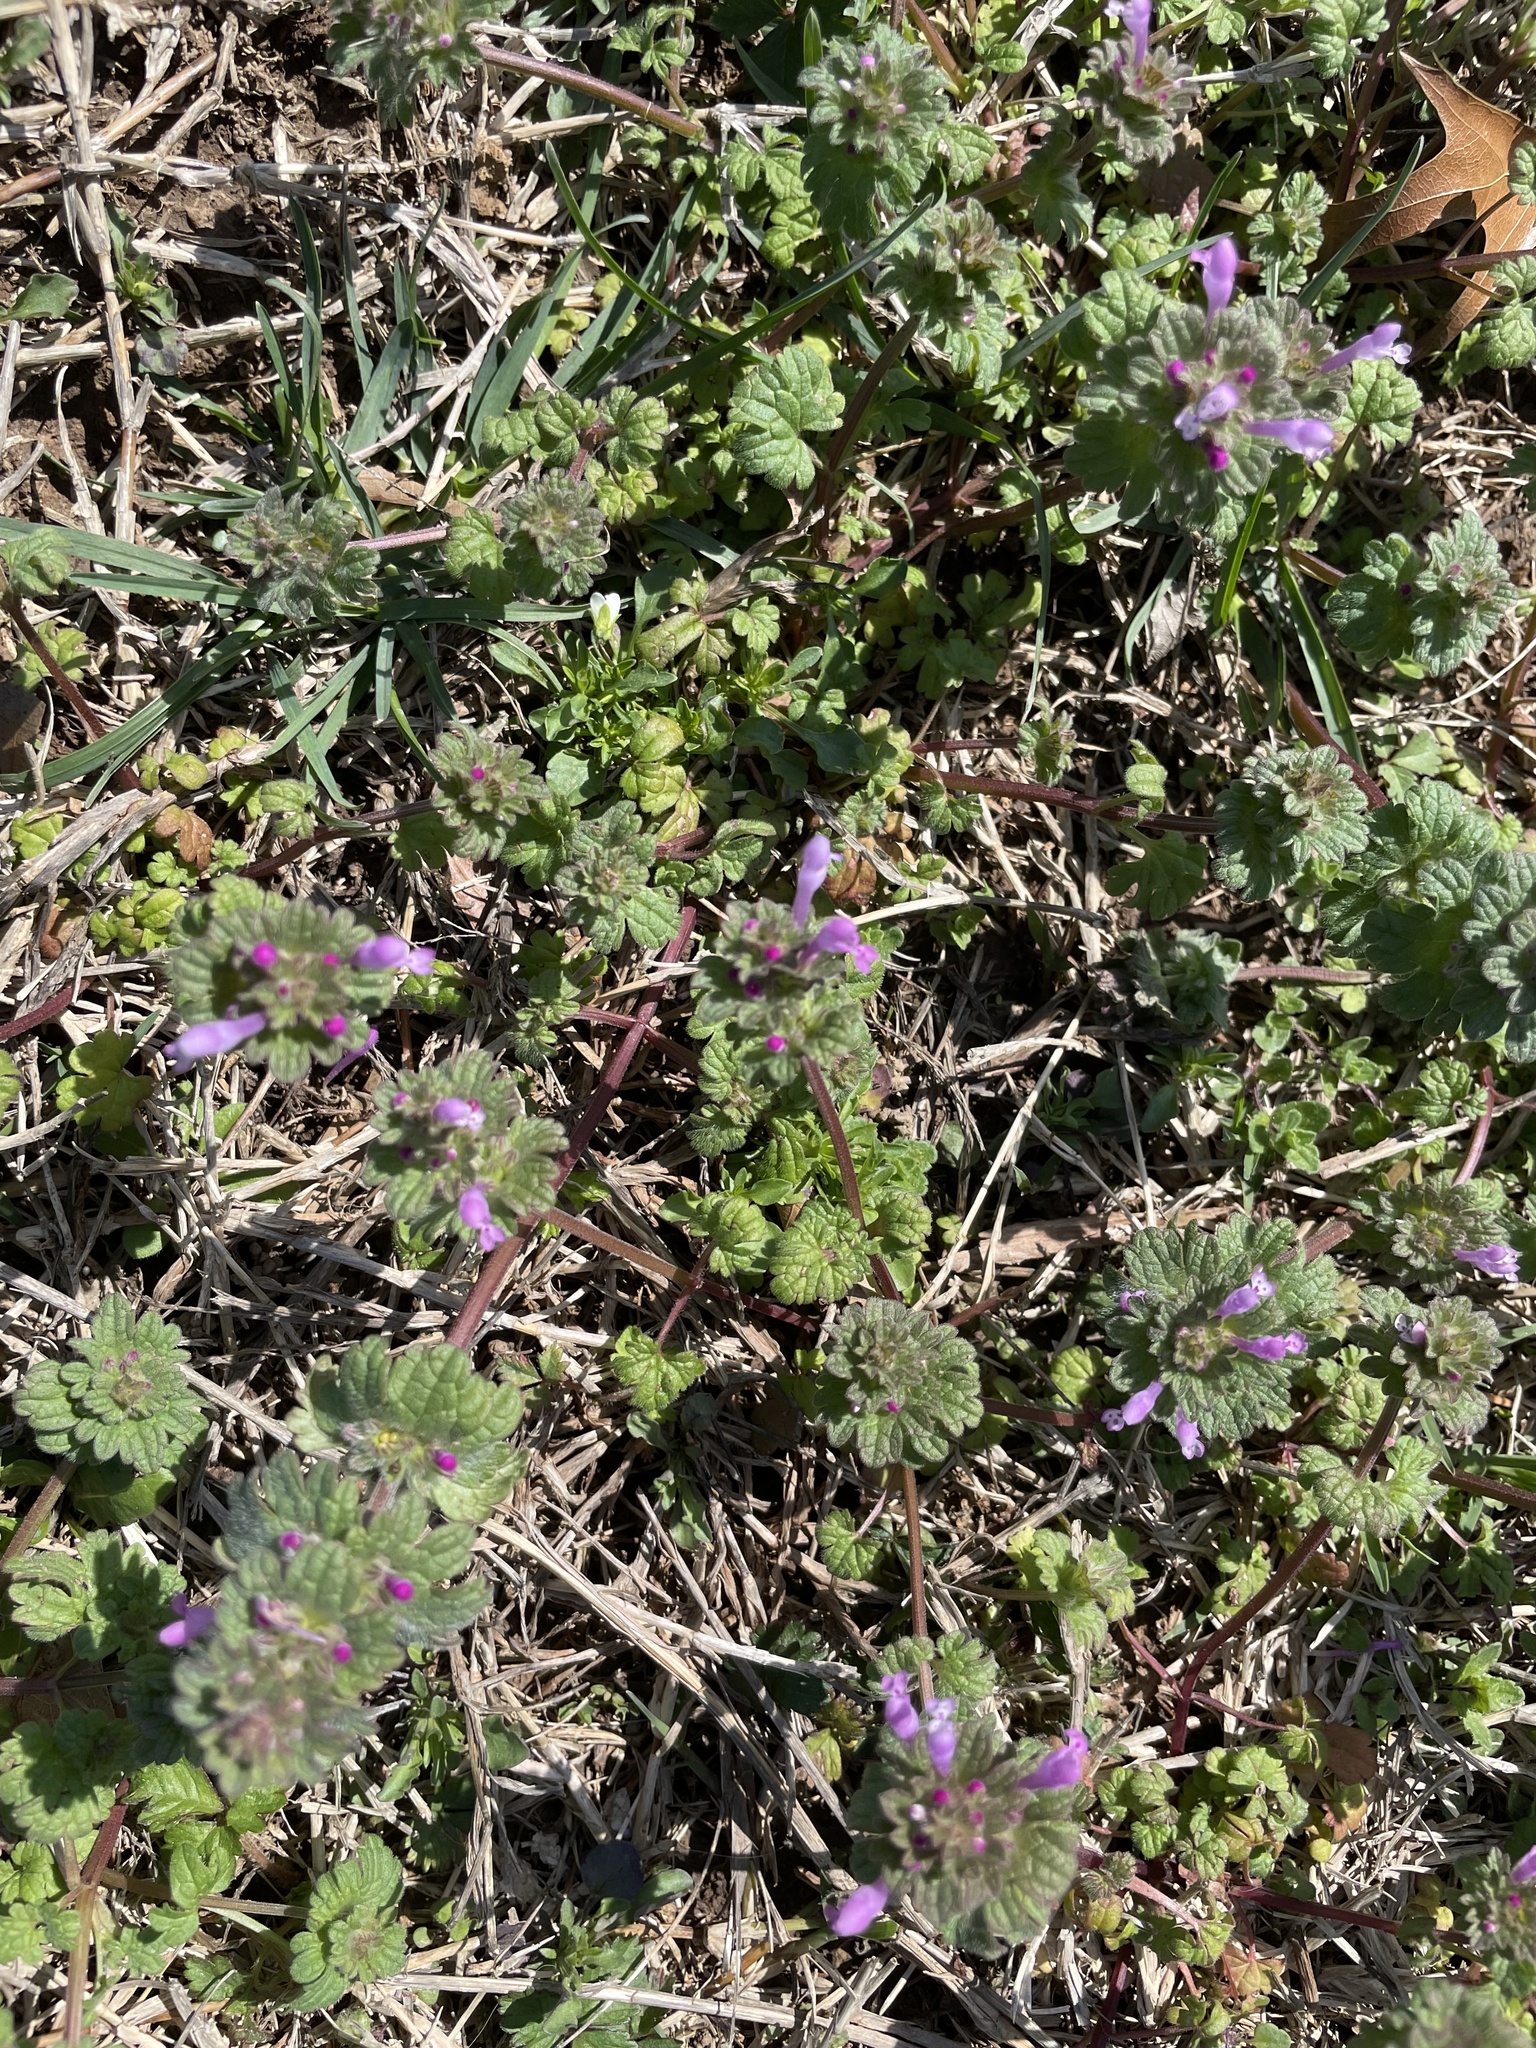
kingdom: Plantae
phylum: Tracheophyta
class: Magnoliopsida
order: Lamiales
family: Lamiaceae
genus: Lamium
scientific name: Lamium amplexicaule
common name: Henbit dead-nettle
